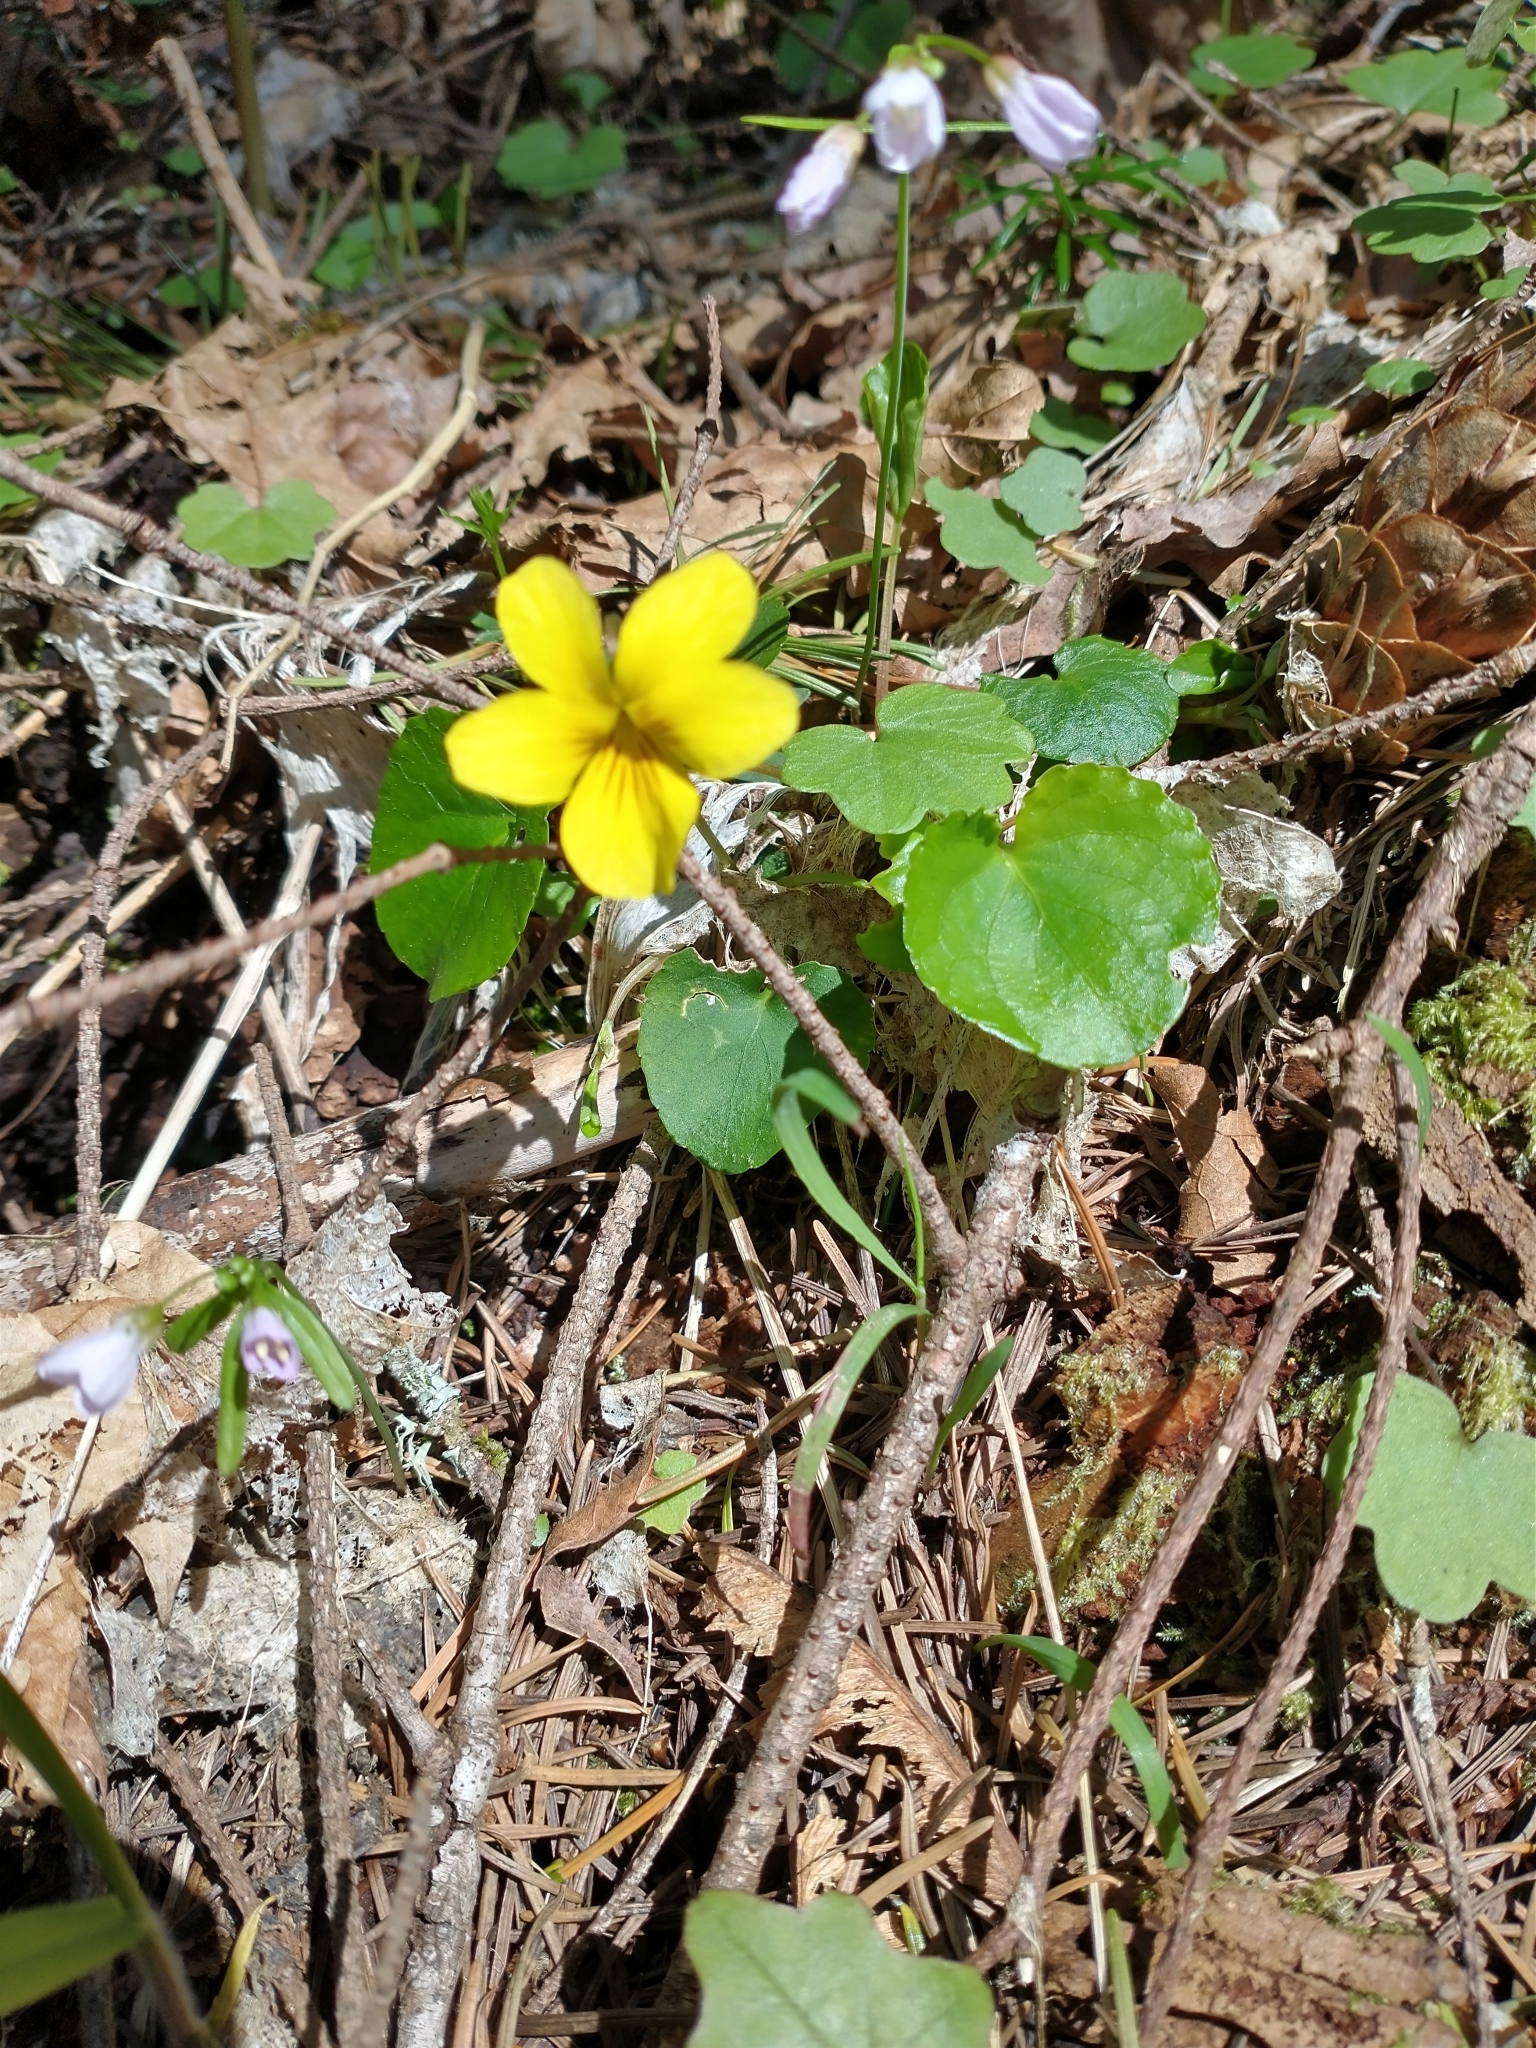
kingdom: Plantae
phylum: Tracheophyta
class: Magnoliopsida
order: Malpighiales
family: Violaceae
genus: Viola
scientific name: Viola sempervirens
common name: Evergreen violet
